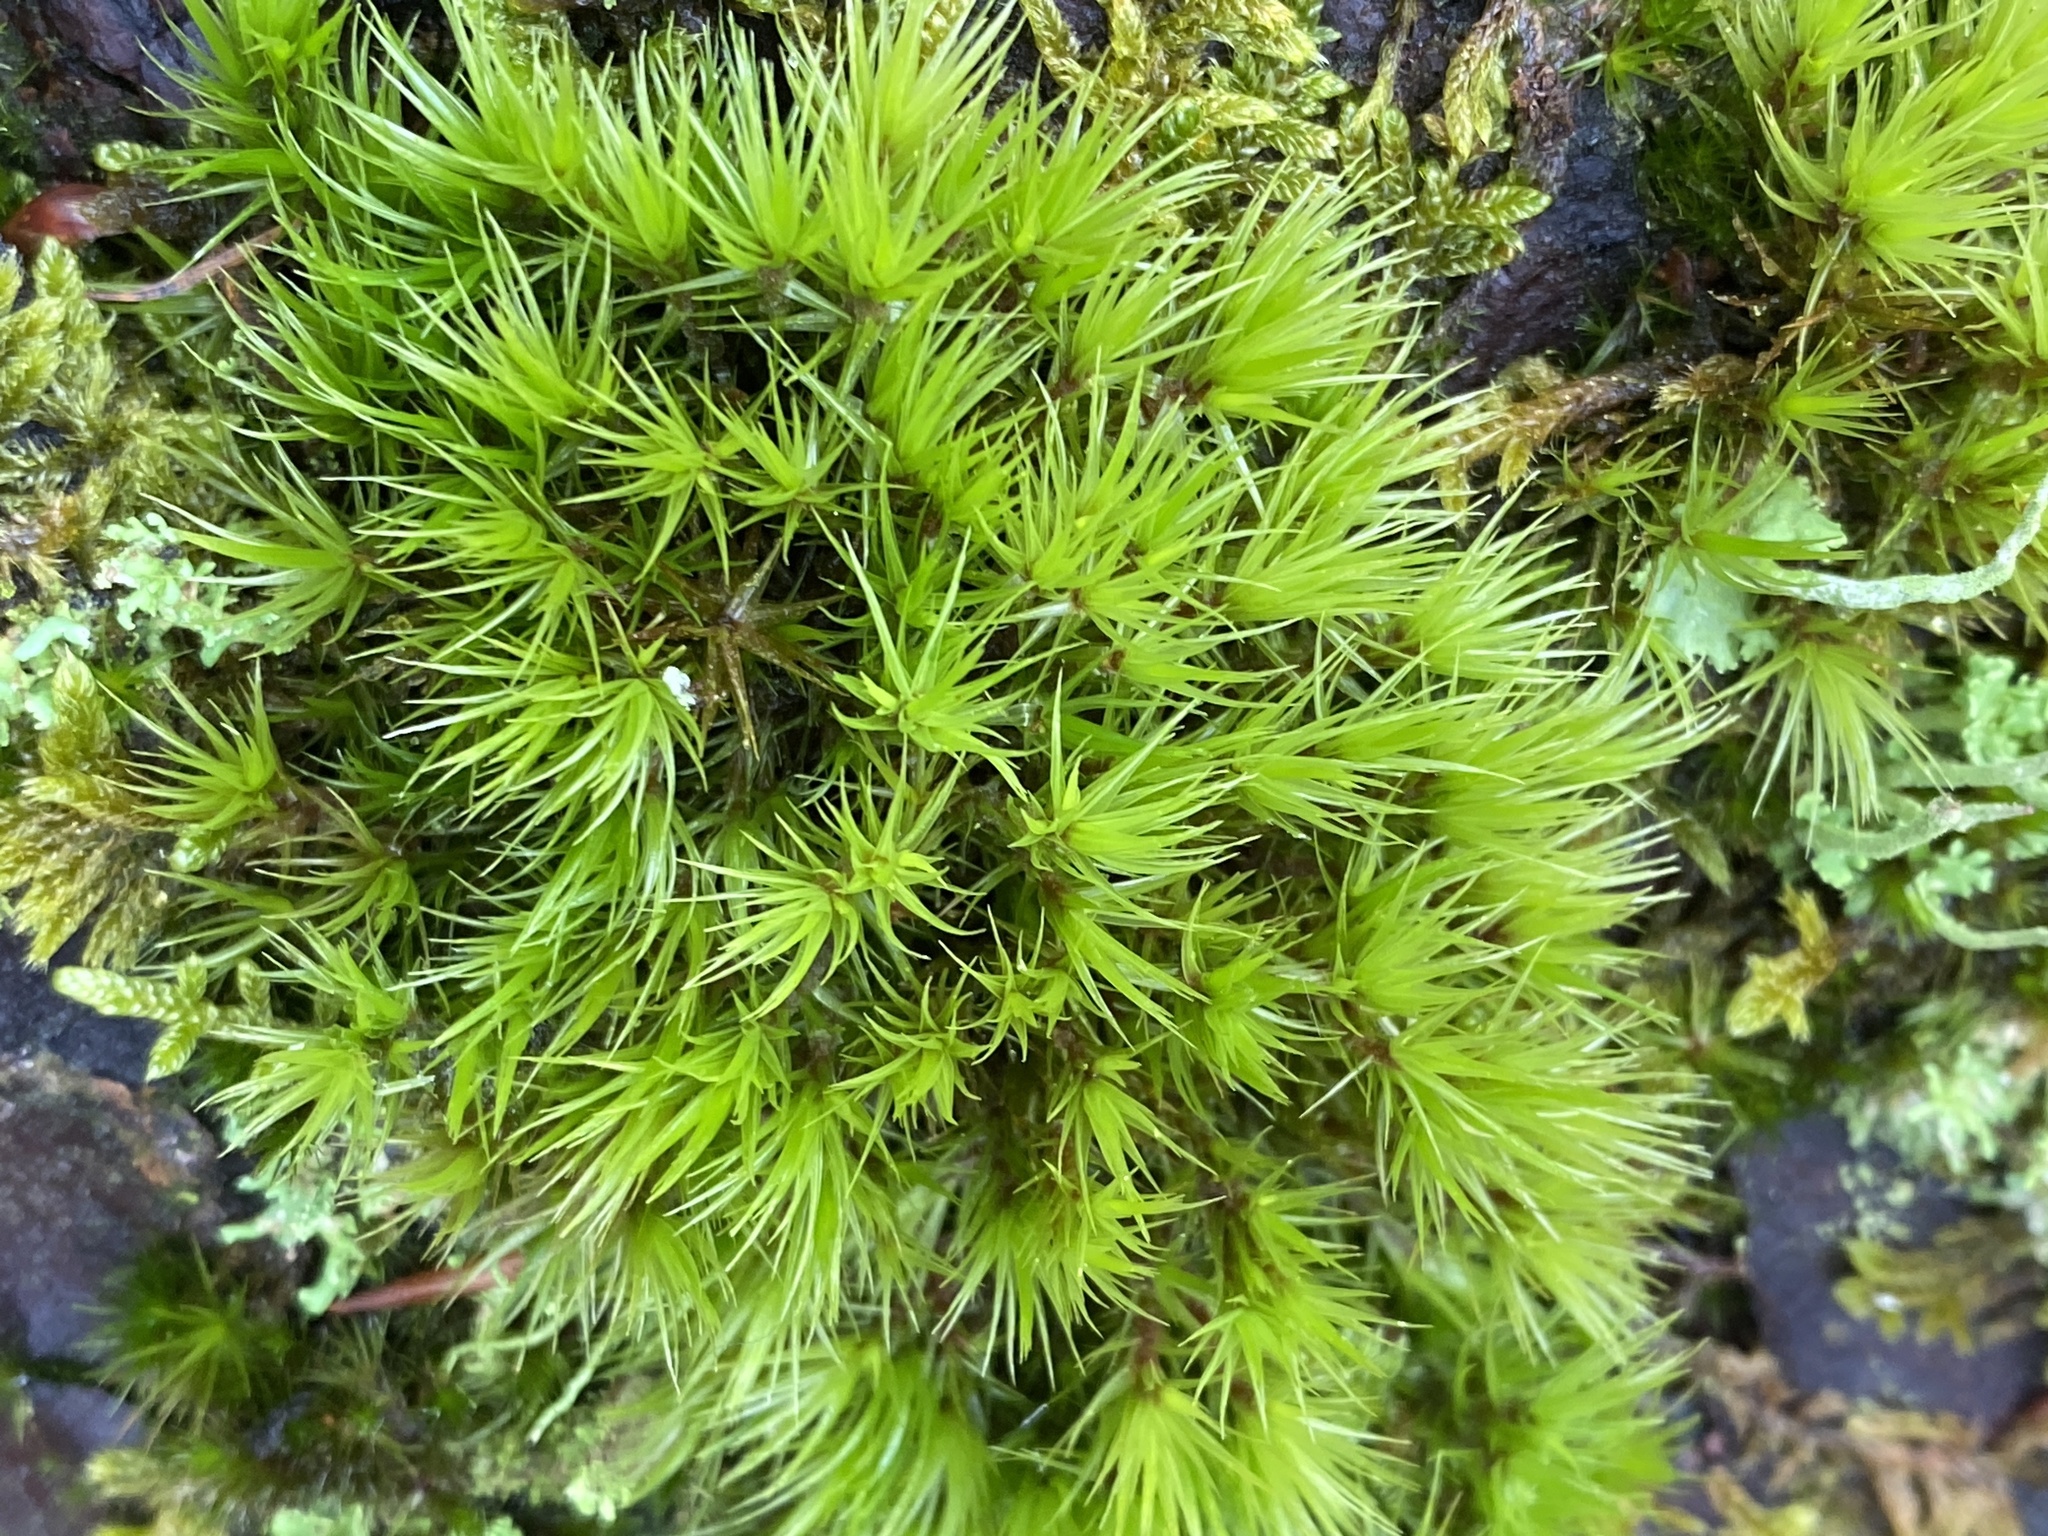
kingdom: Plantae
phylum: Bryophyta
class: Bryopsida
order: Dicranales
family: Dicranaceae
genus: Dicranum
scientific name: Dicranum scoparium
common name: Broom fork-moss
